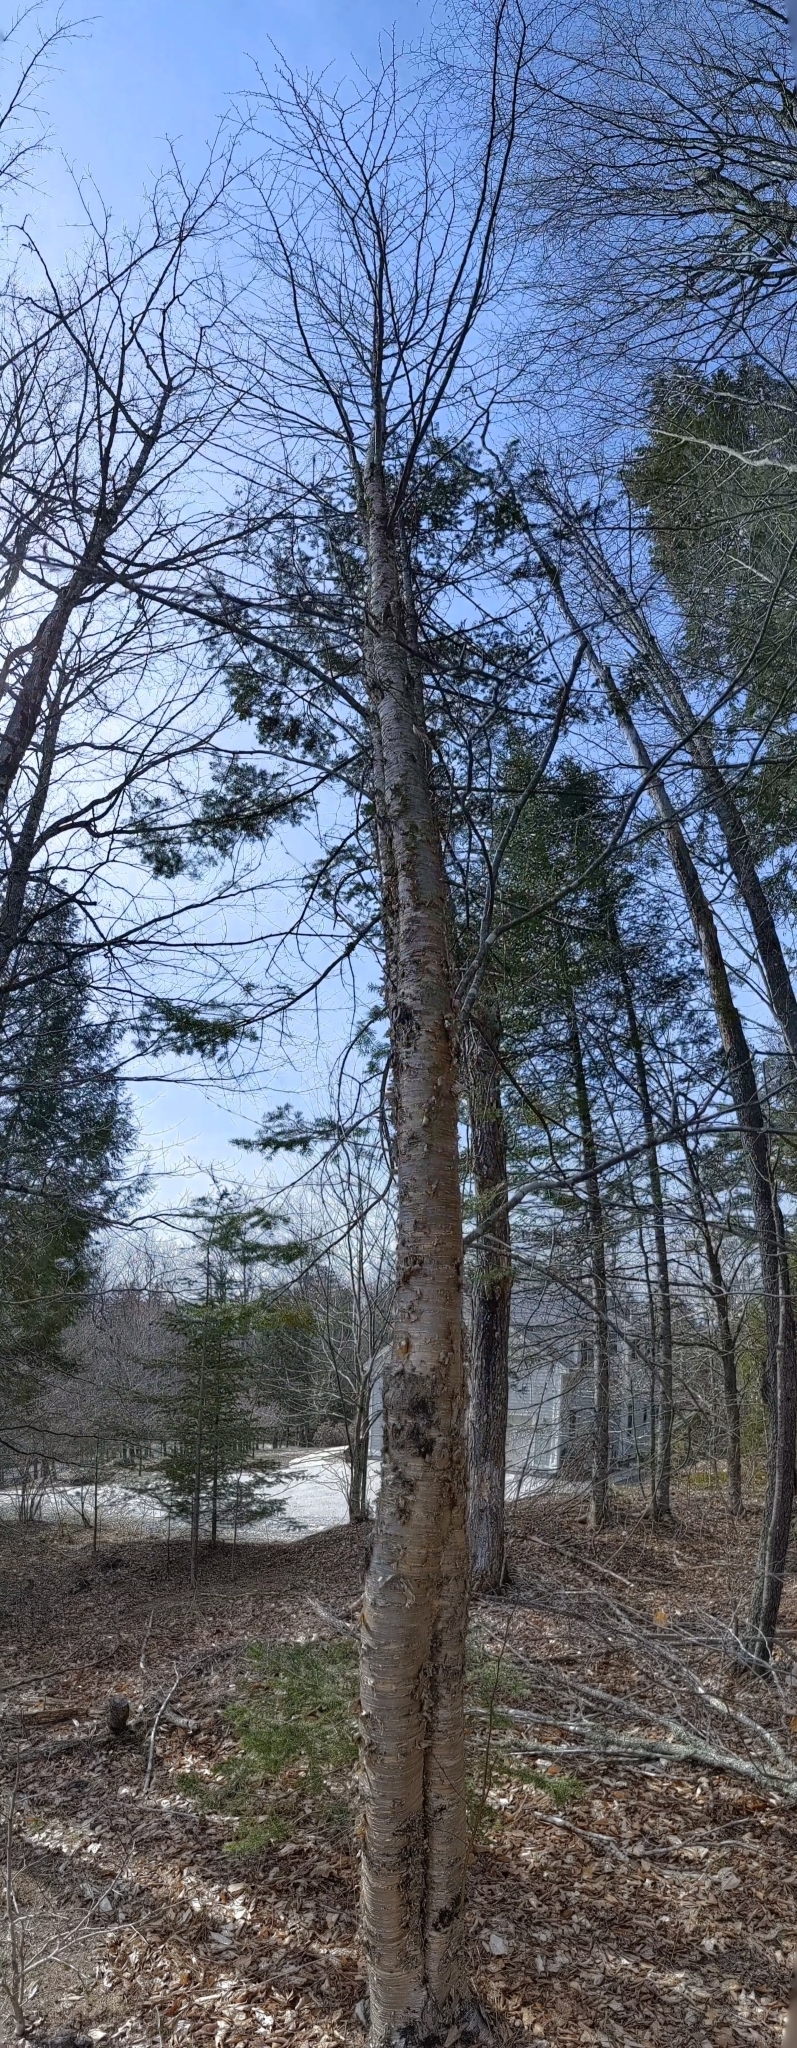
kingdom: Plantae
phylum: Tracheophyta
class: Magnoliopsida
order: Fagales
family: Betulaceae
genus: Betula
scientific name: Betula alleghaniensis
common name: Yellow birch
